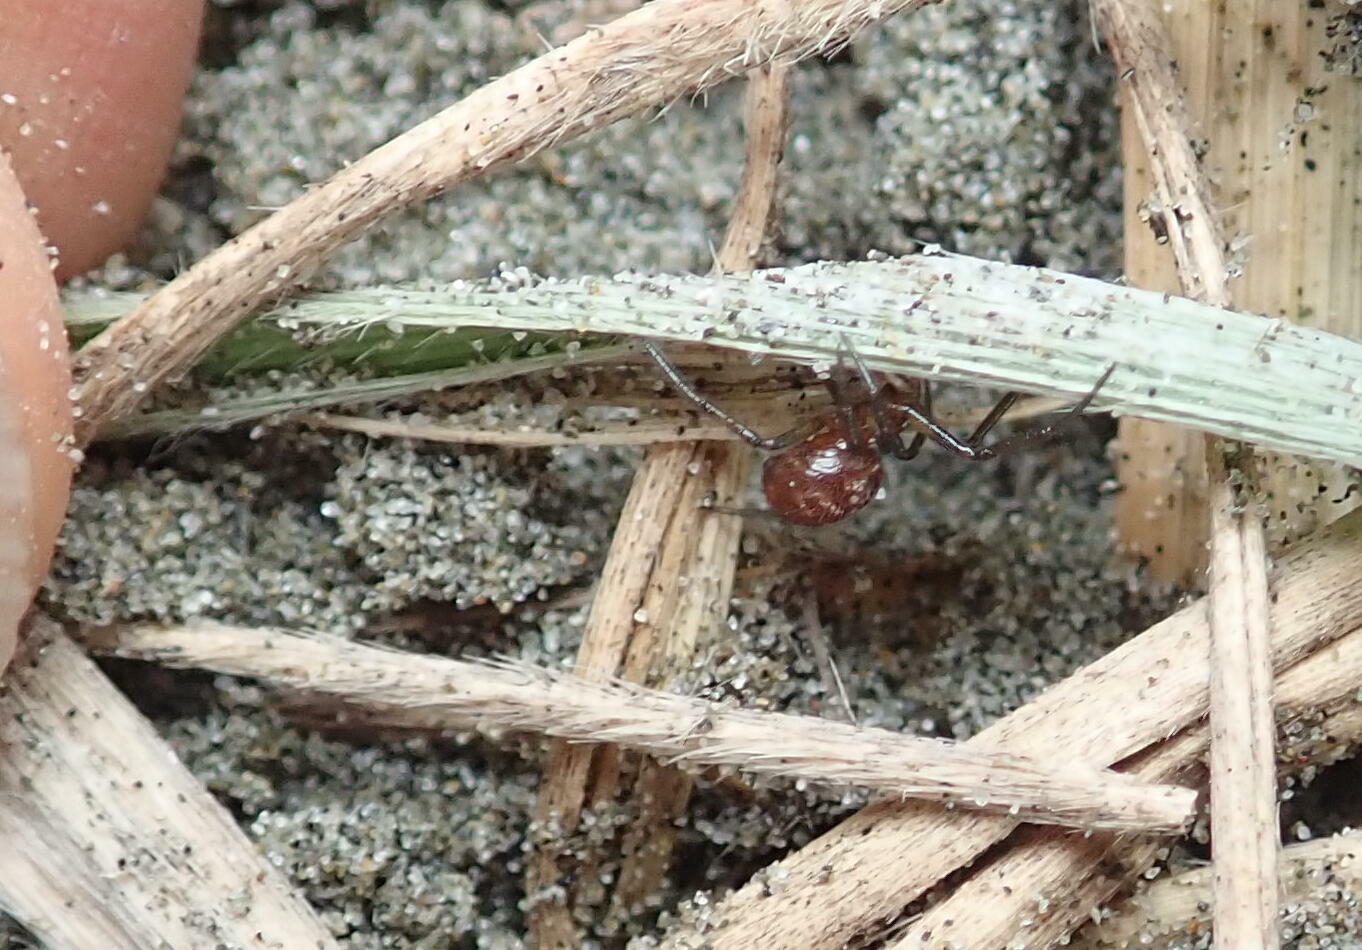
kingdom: Animalia
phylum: Arthropoda
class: Arachnida
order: Araneae
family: Theridiidae
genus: Steatoda
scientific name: Steatoda capensis
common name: Cobweb weaver
